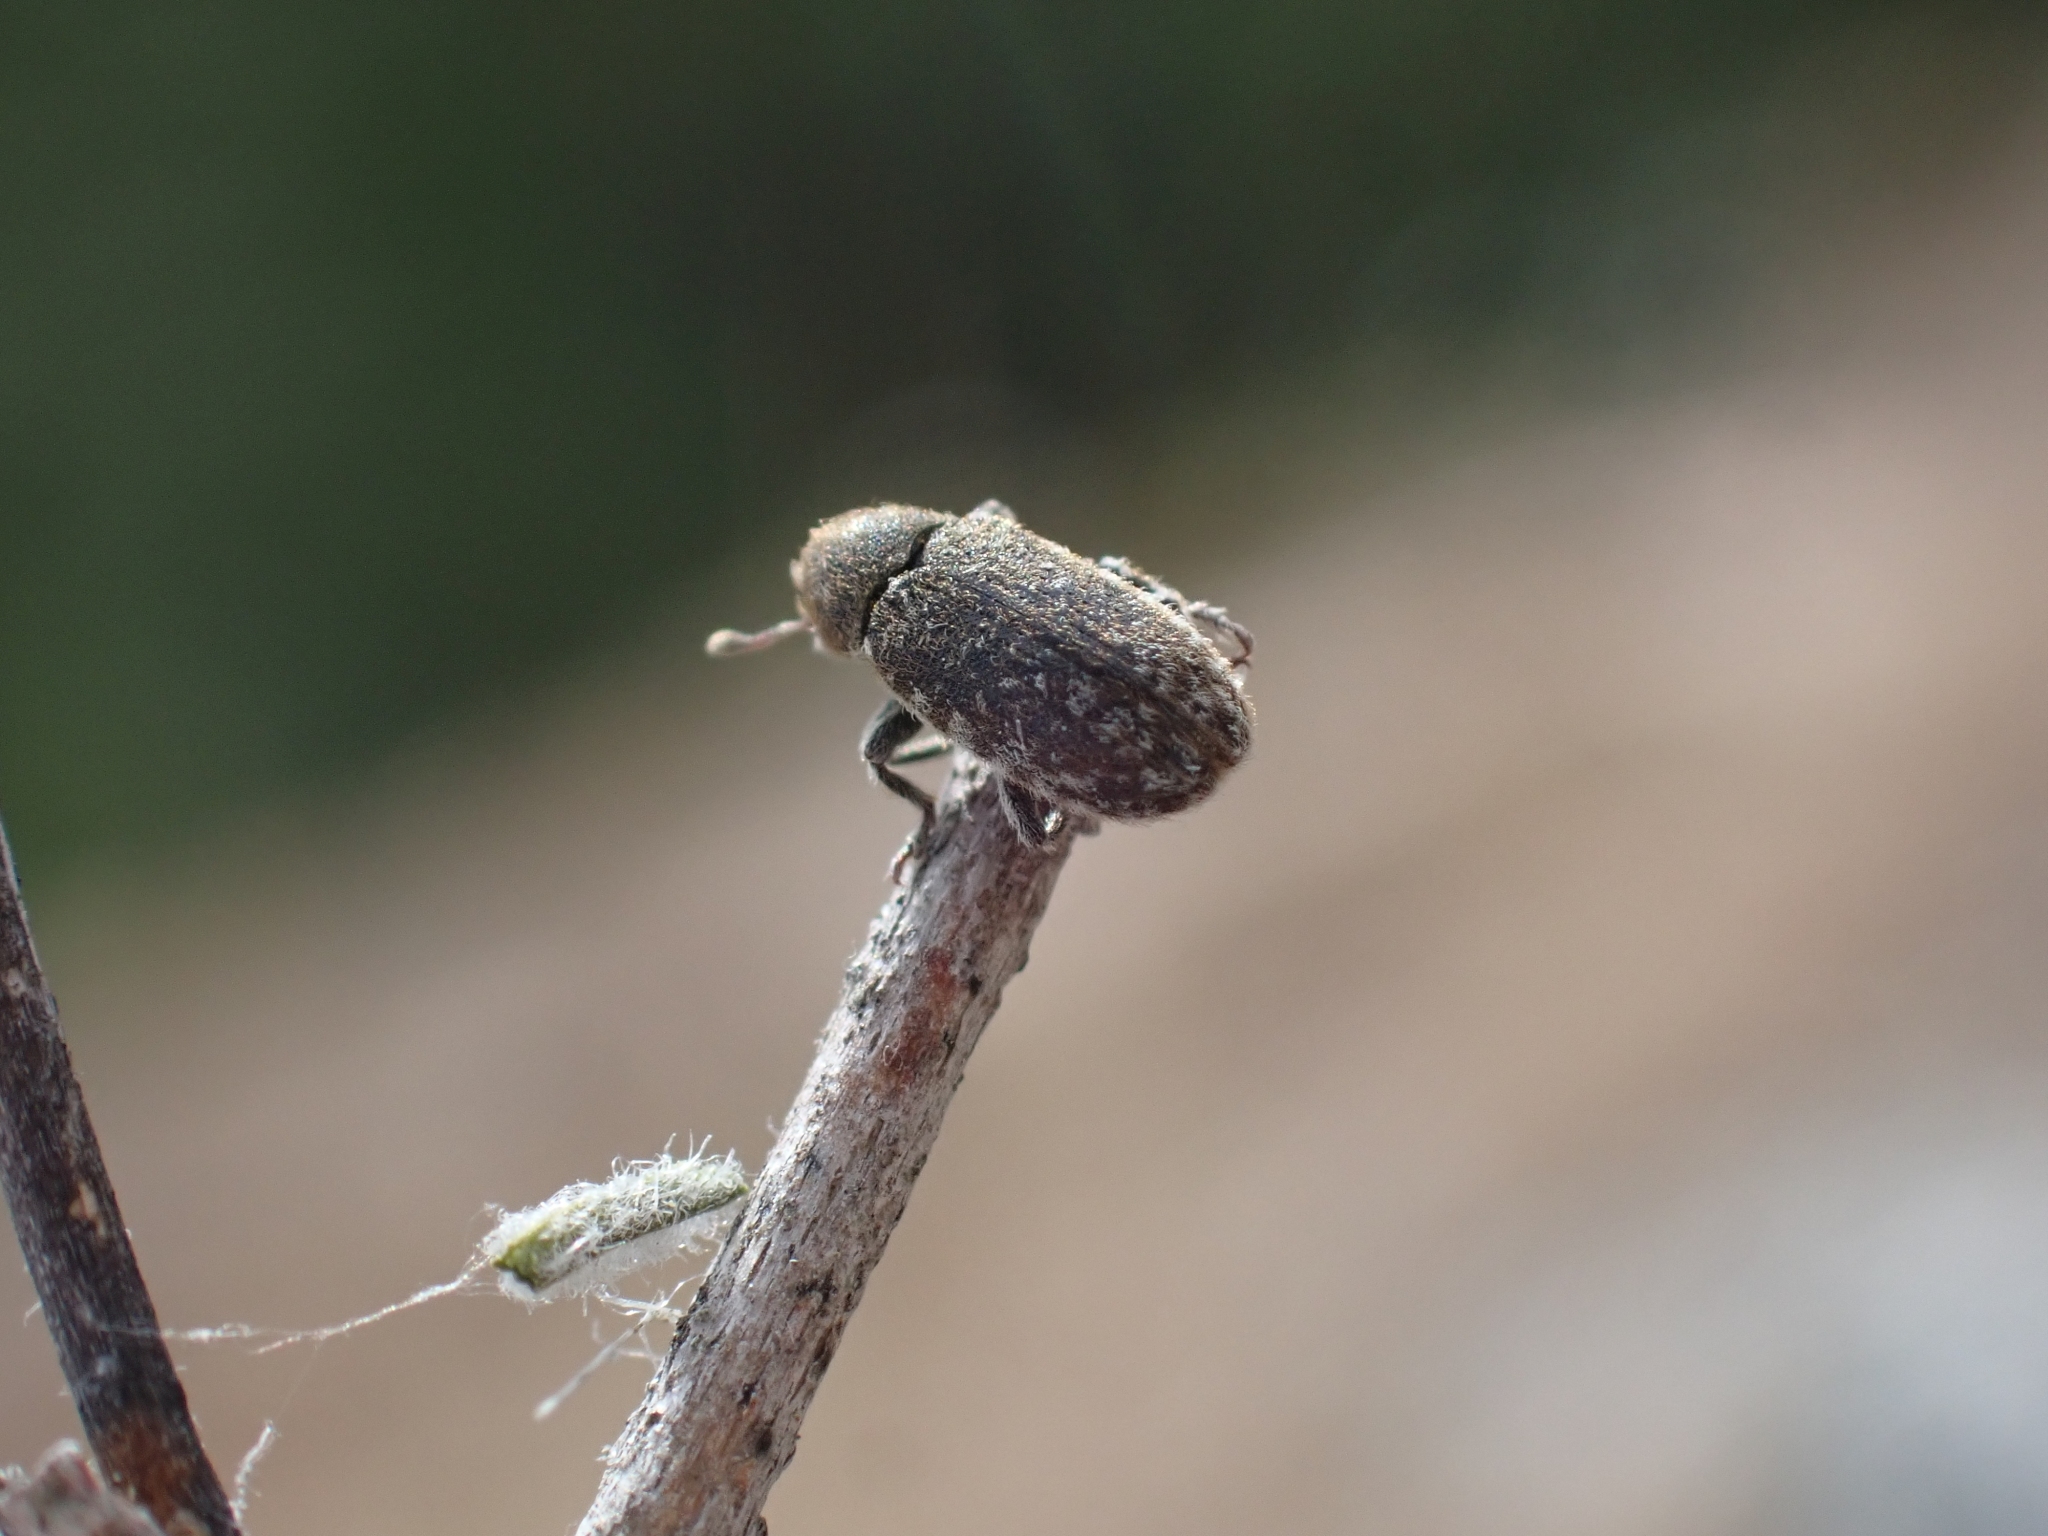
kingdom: Animalia
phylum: Arthropoda
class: Insecta
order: Coleoptera
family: Curculionidae
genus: Bangasternus
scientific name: Bangasternus fausti
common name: Broad-nosed knapweed seedhead weevil
